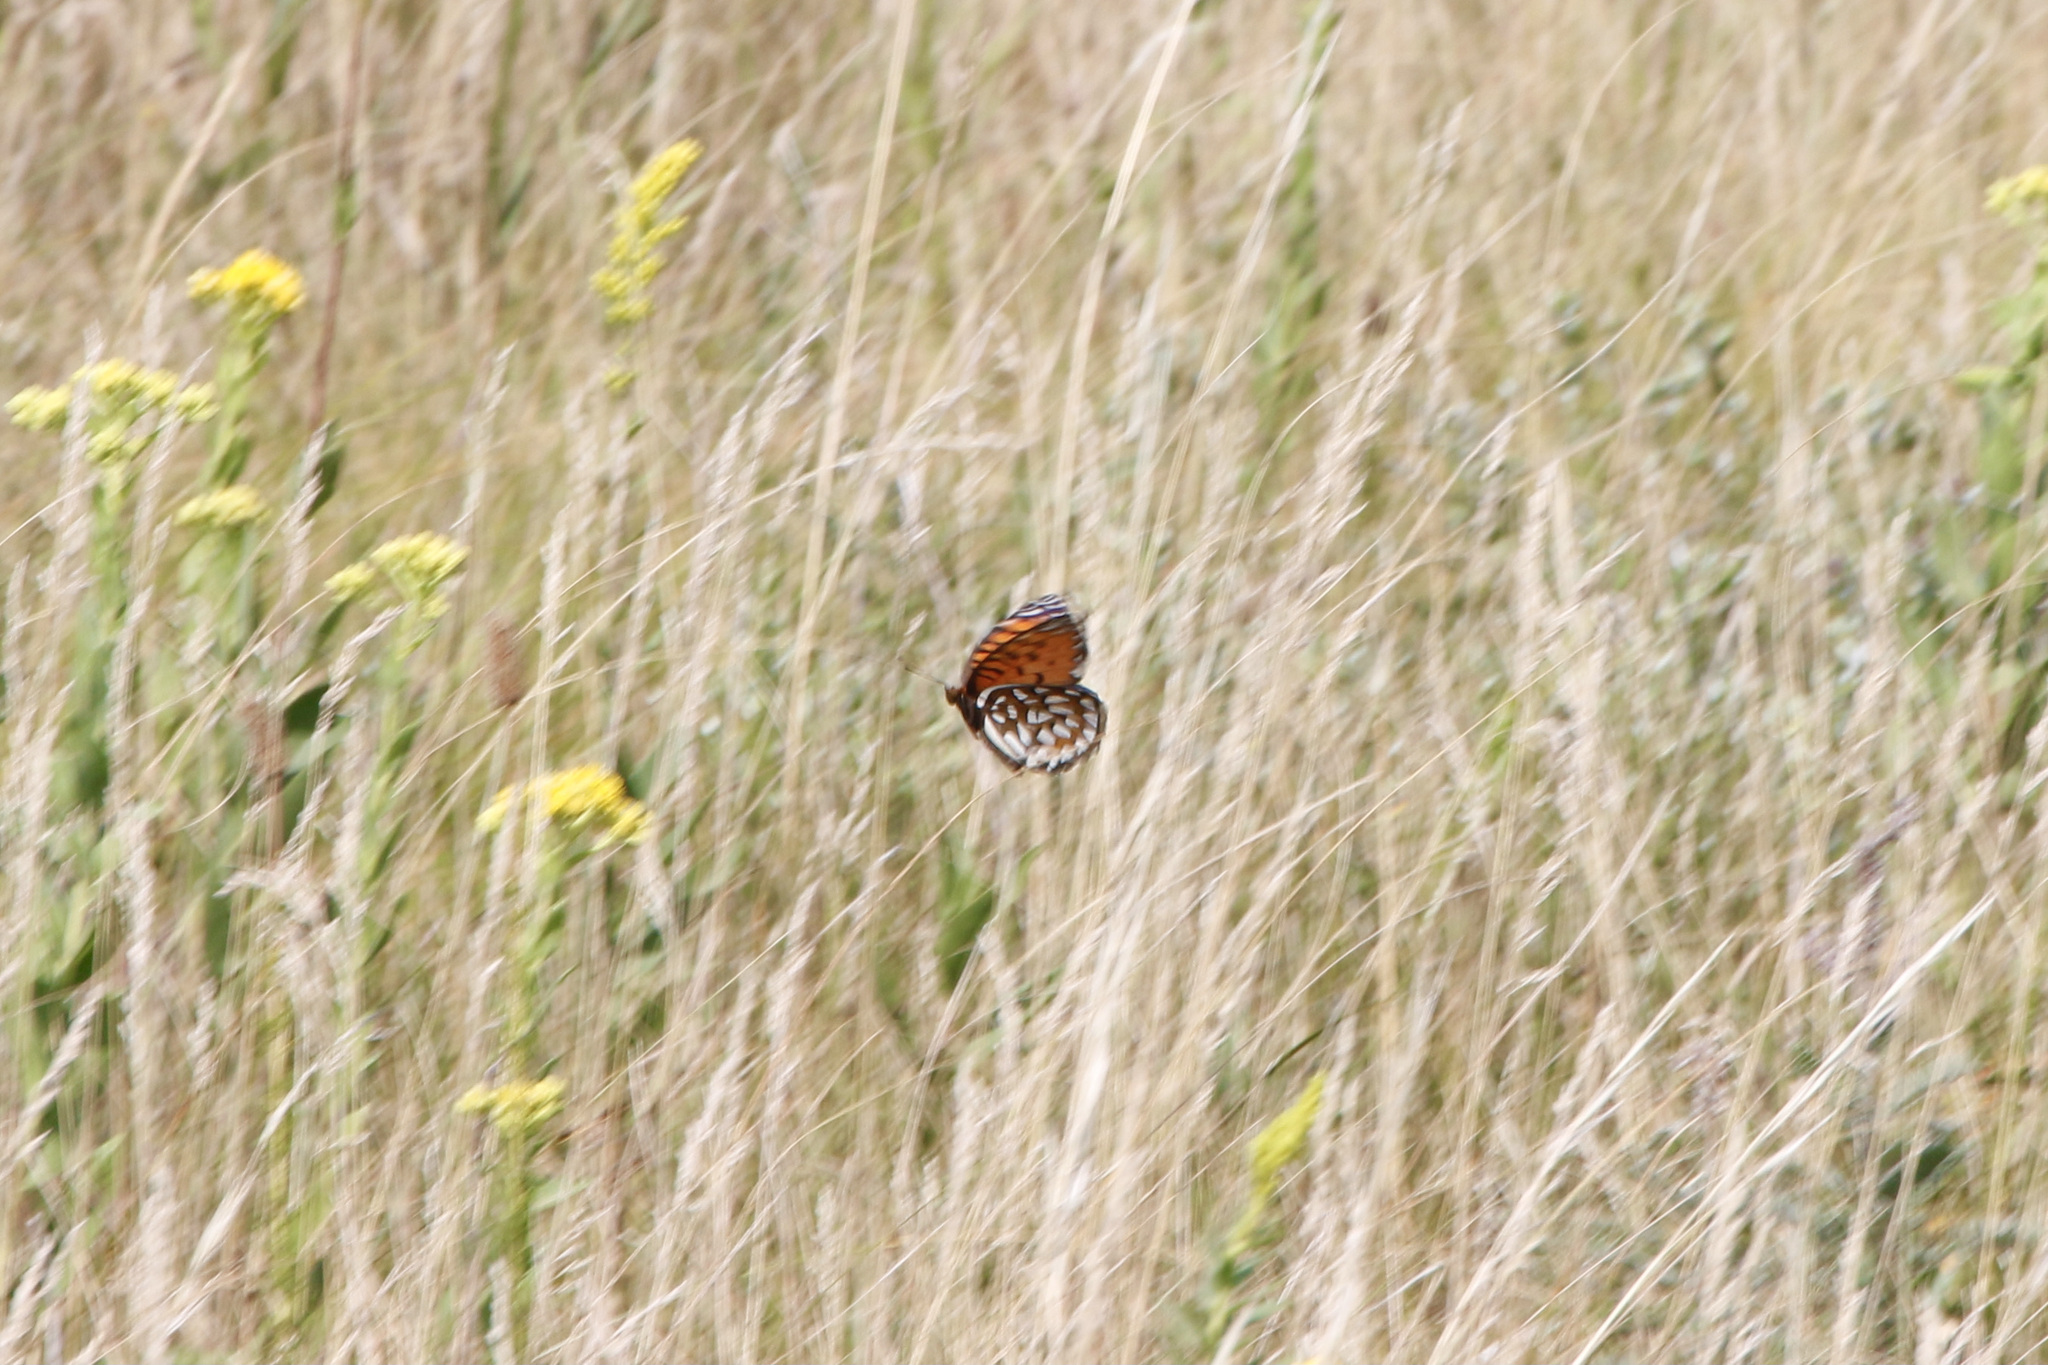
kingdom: Animalia
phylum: Arthropoda
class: Insecta
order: Lepidoptera
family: Nymphalidae
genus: Speyeria
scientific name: Speyeria idalia
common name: Regal fritillary
